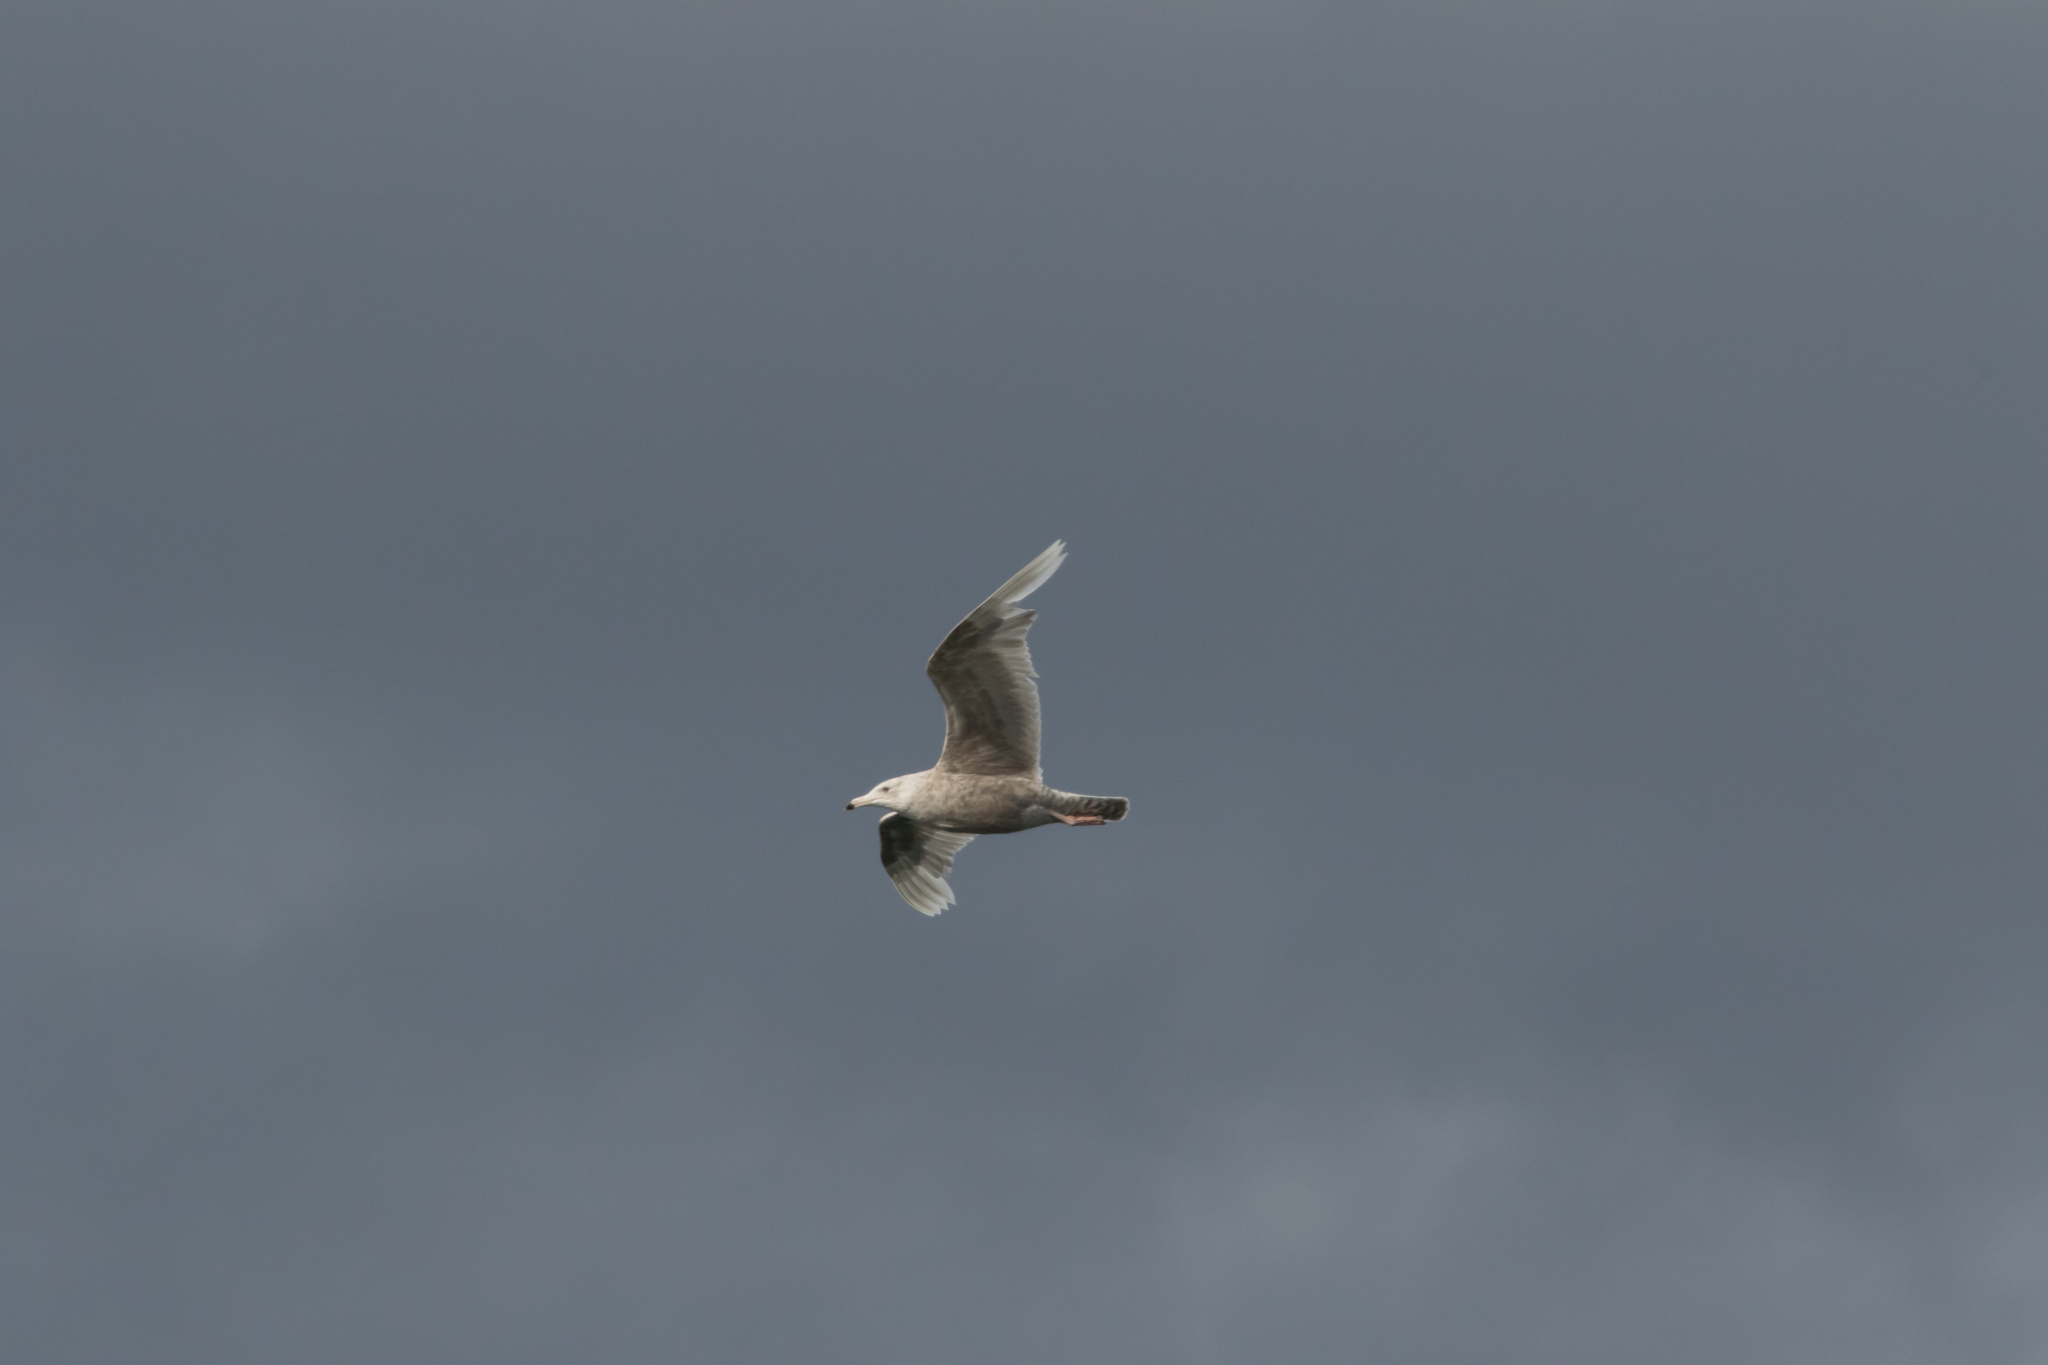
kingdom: Animalia
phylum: Chordata
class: Aves
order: Charadriiformes
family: Laridae
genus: Larus
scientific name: Larus hyperboreus
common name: Glaucous gull
